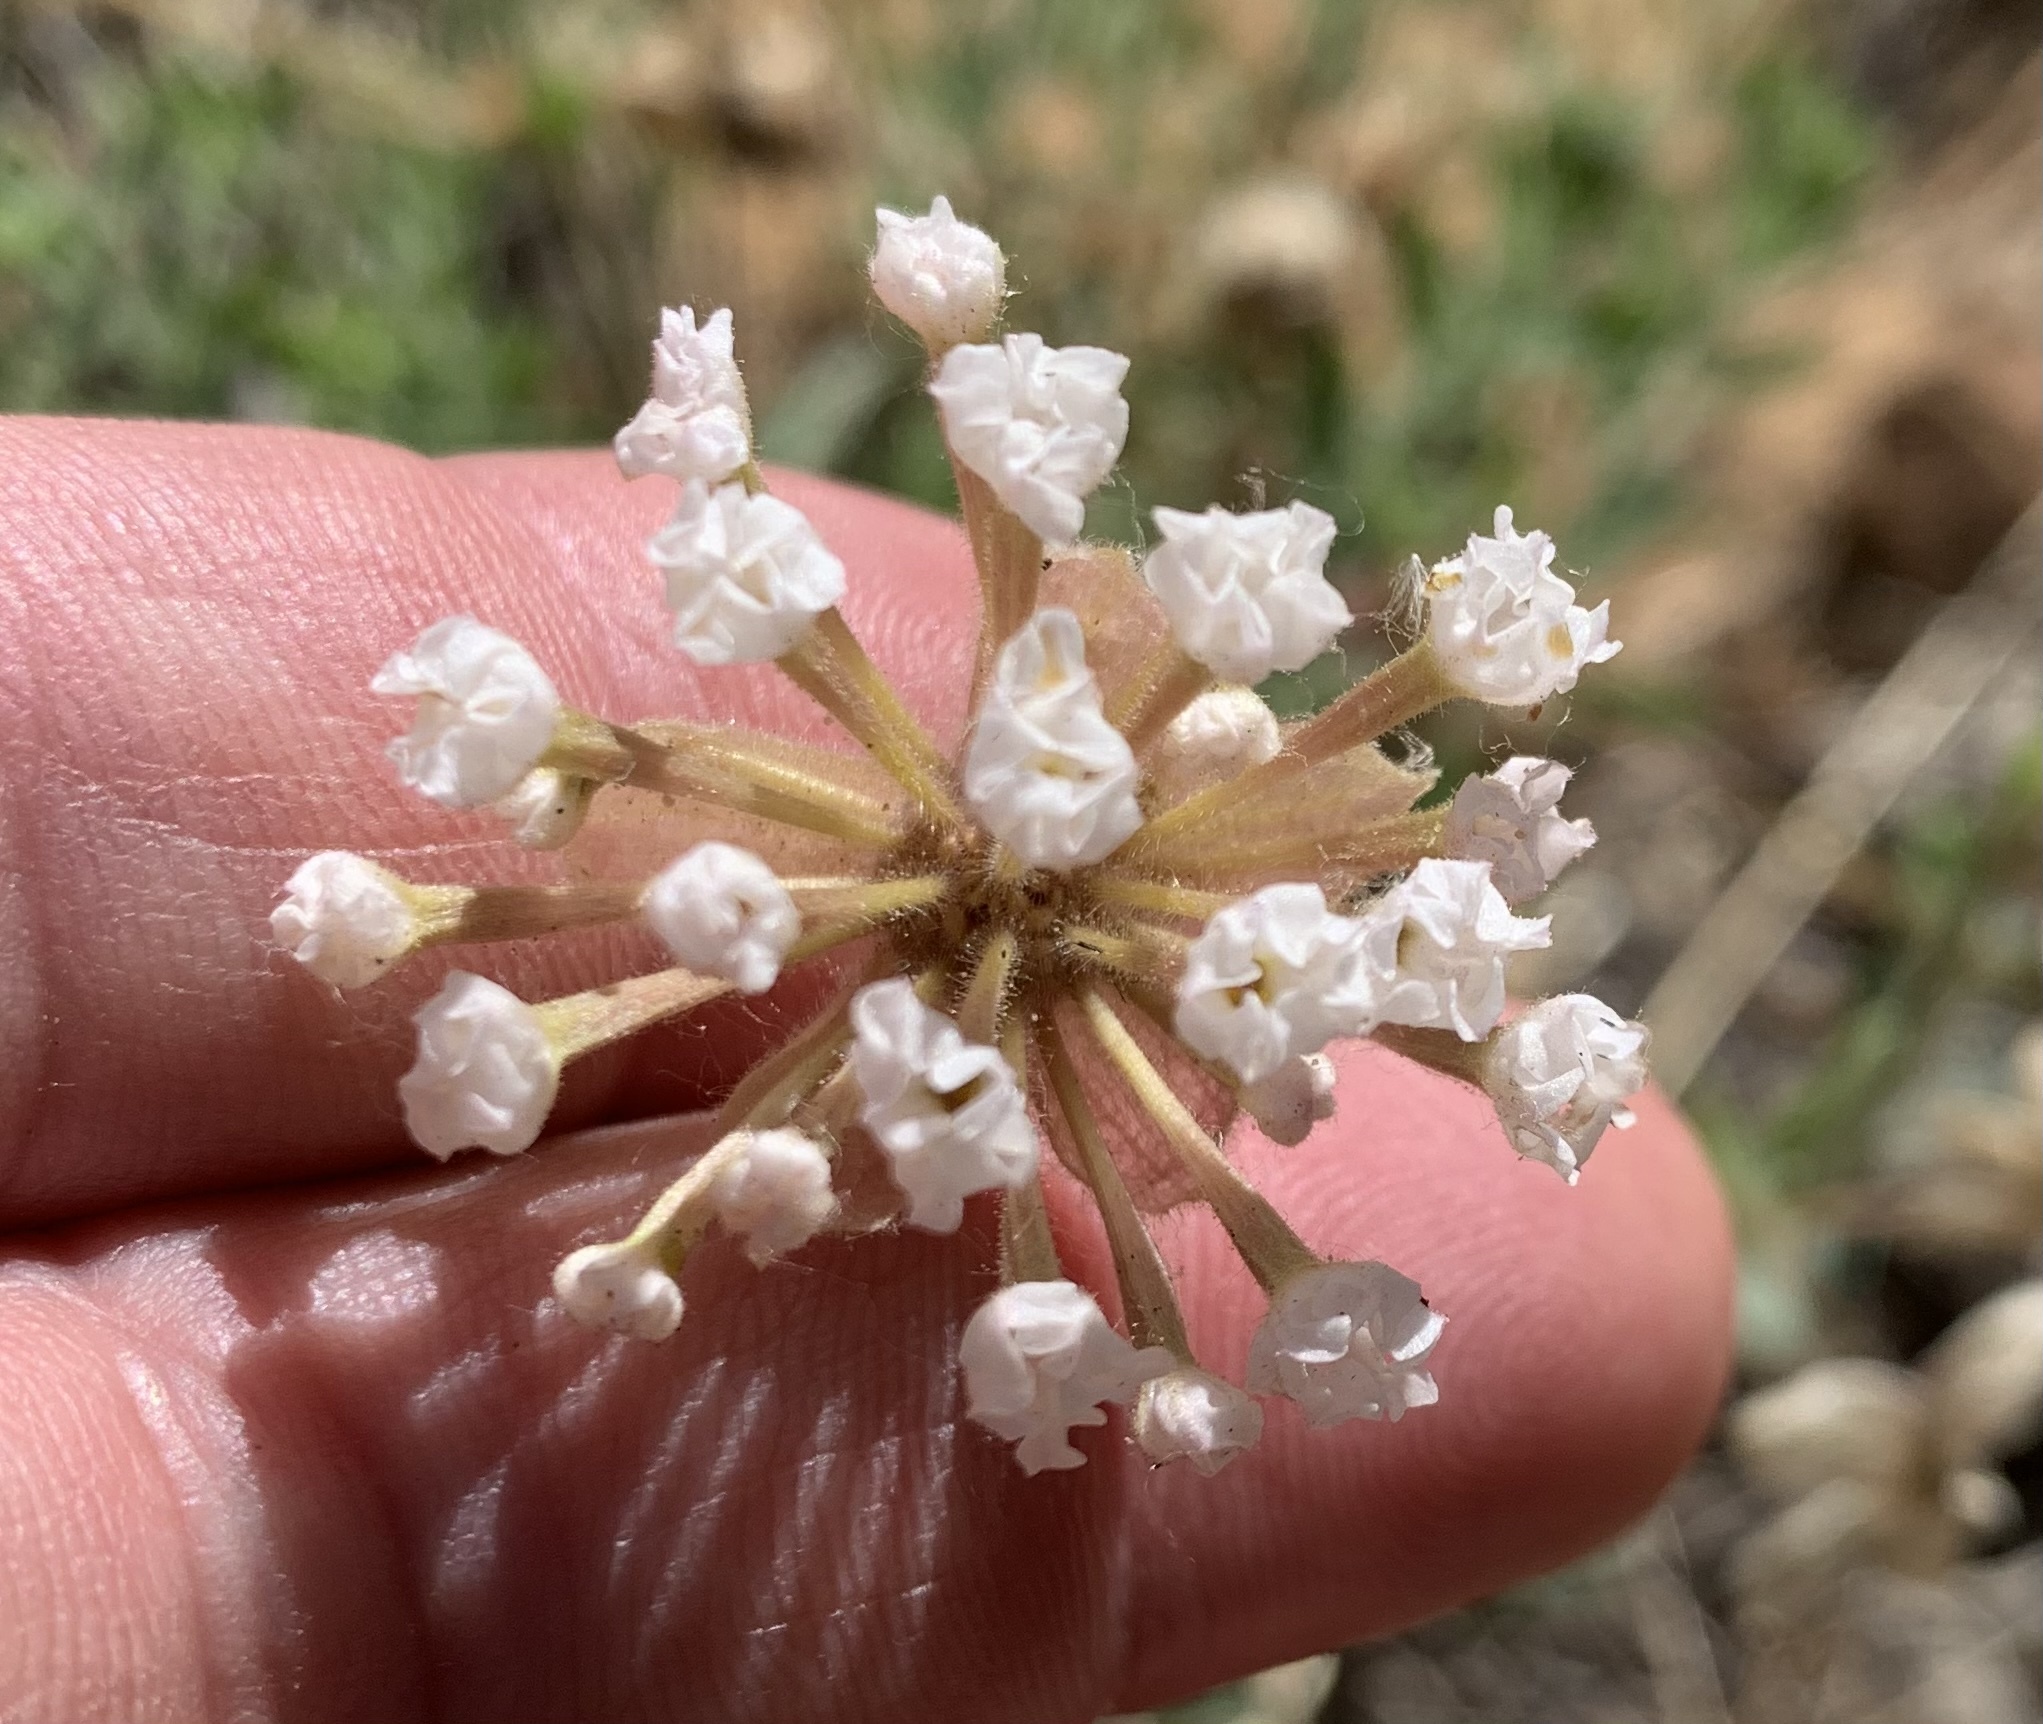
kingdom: Plantae
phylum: Tracheophyta
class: Magnoliopsida
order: Caryophyllales
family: Nyctaginaceae
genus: Abronia
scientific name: Abronia elliptica
